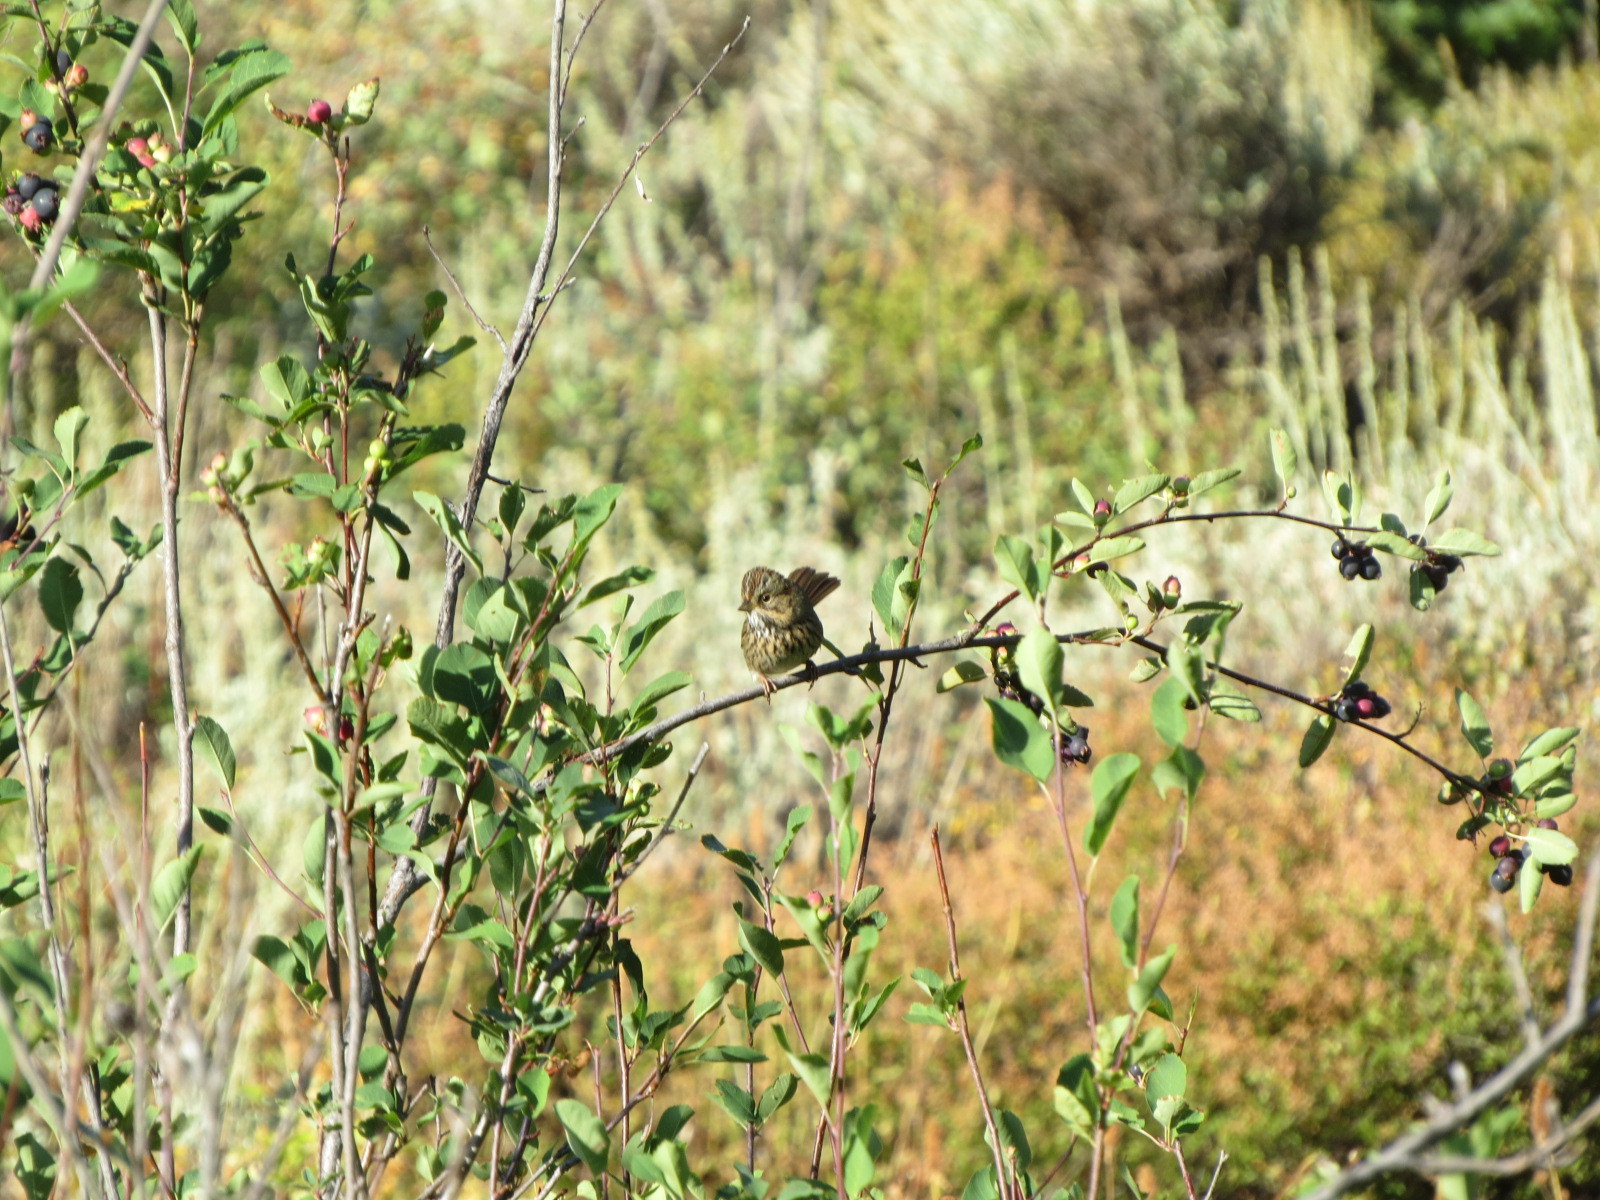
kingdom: Animalia
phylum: Chordata
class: Aves
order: Passeriformes
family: Passerellidae
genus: Melospiza
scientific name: Melospiza lincolnii
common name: Lincoln's sparrow
